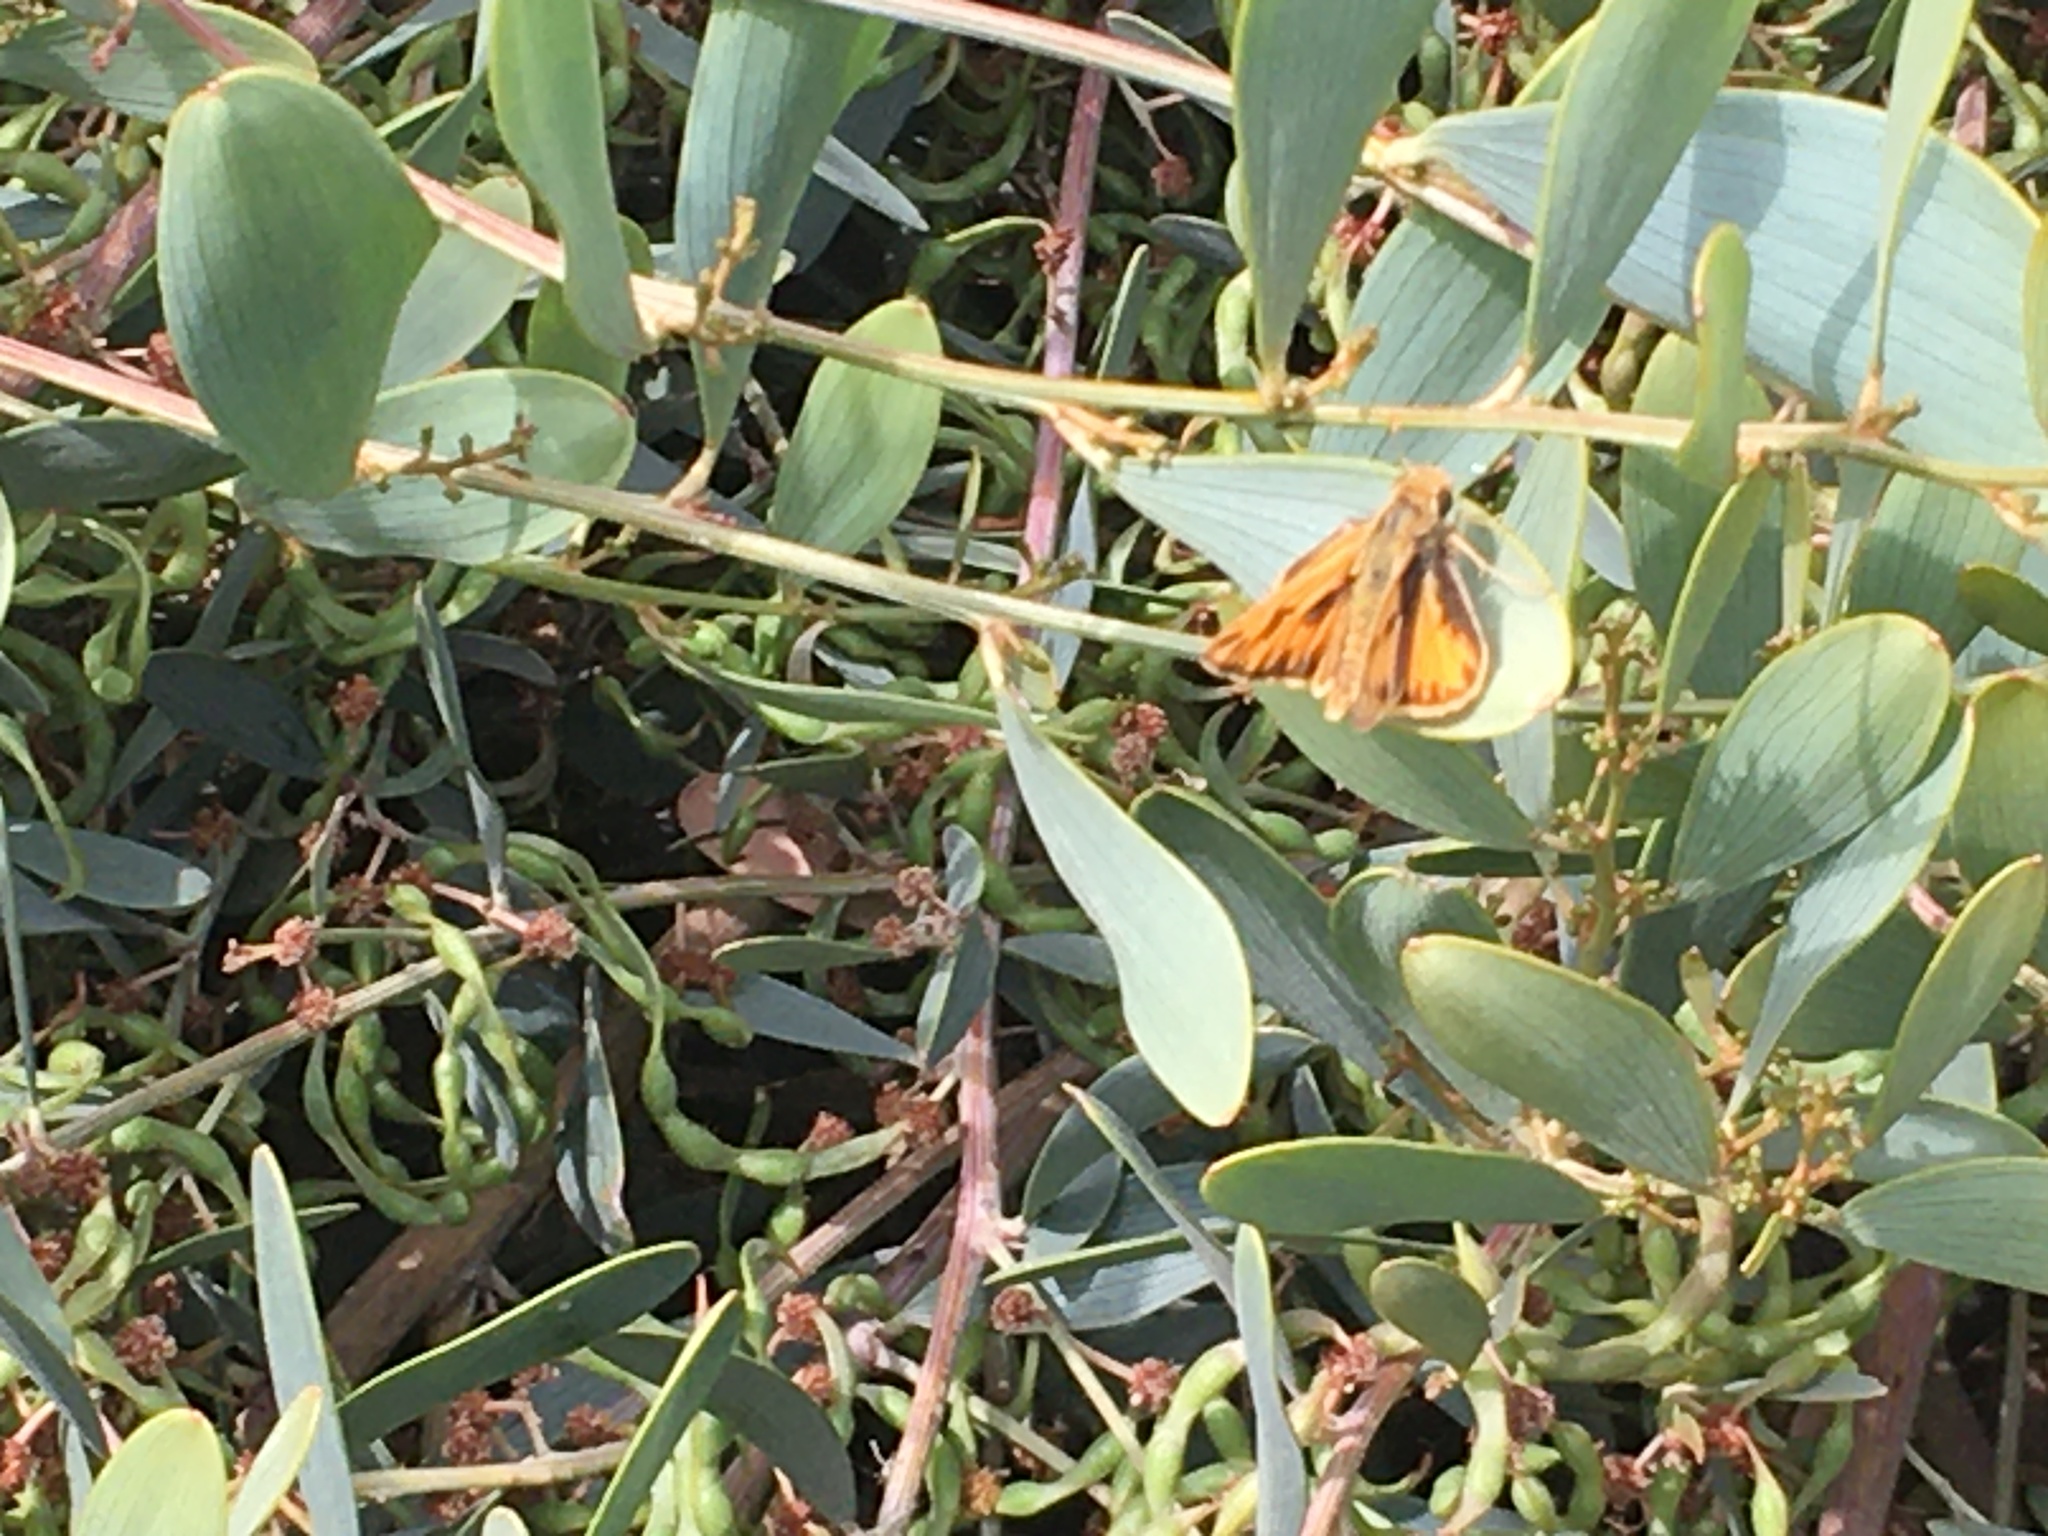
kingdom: Animalia
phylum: Arthropoda
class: Insecta
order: Lepidoptera
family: Hesperiidae
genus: Hylephila
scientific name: Hylephila phyleus
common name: Fiery skipper
